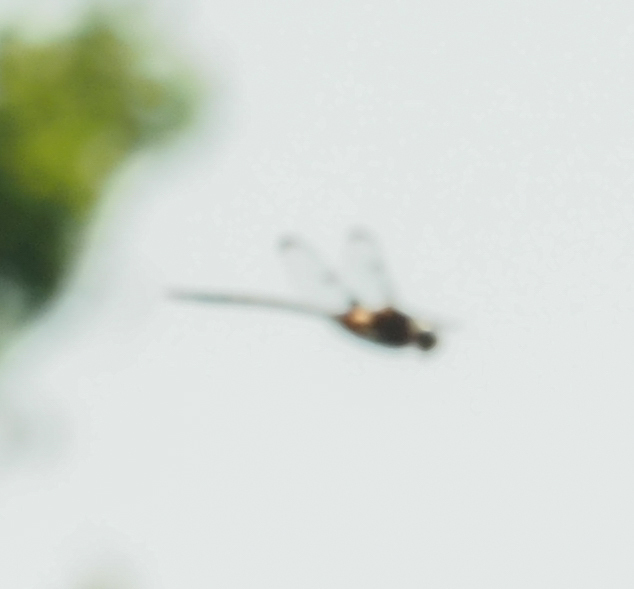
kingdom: Animalia
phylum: Arthropoda
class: Insecta
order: Odonata
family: Corduliidae
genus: Epitheca
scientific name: Epitheca princeps
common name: Prince baskettail
